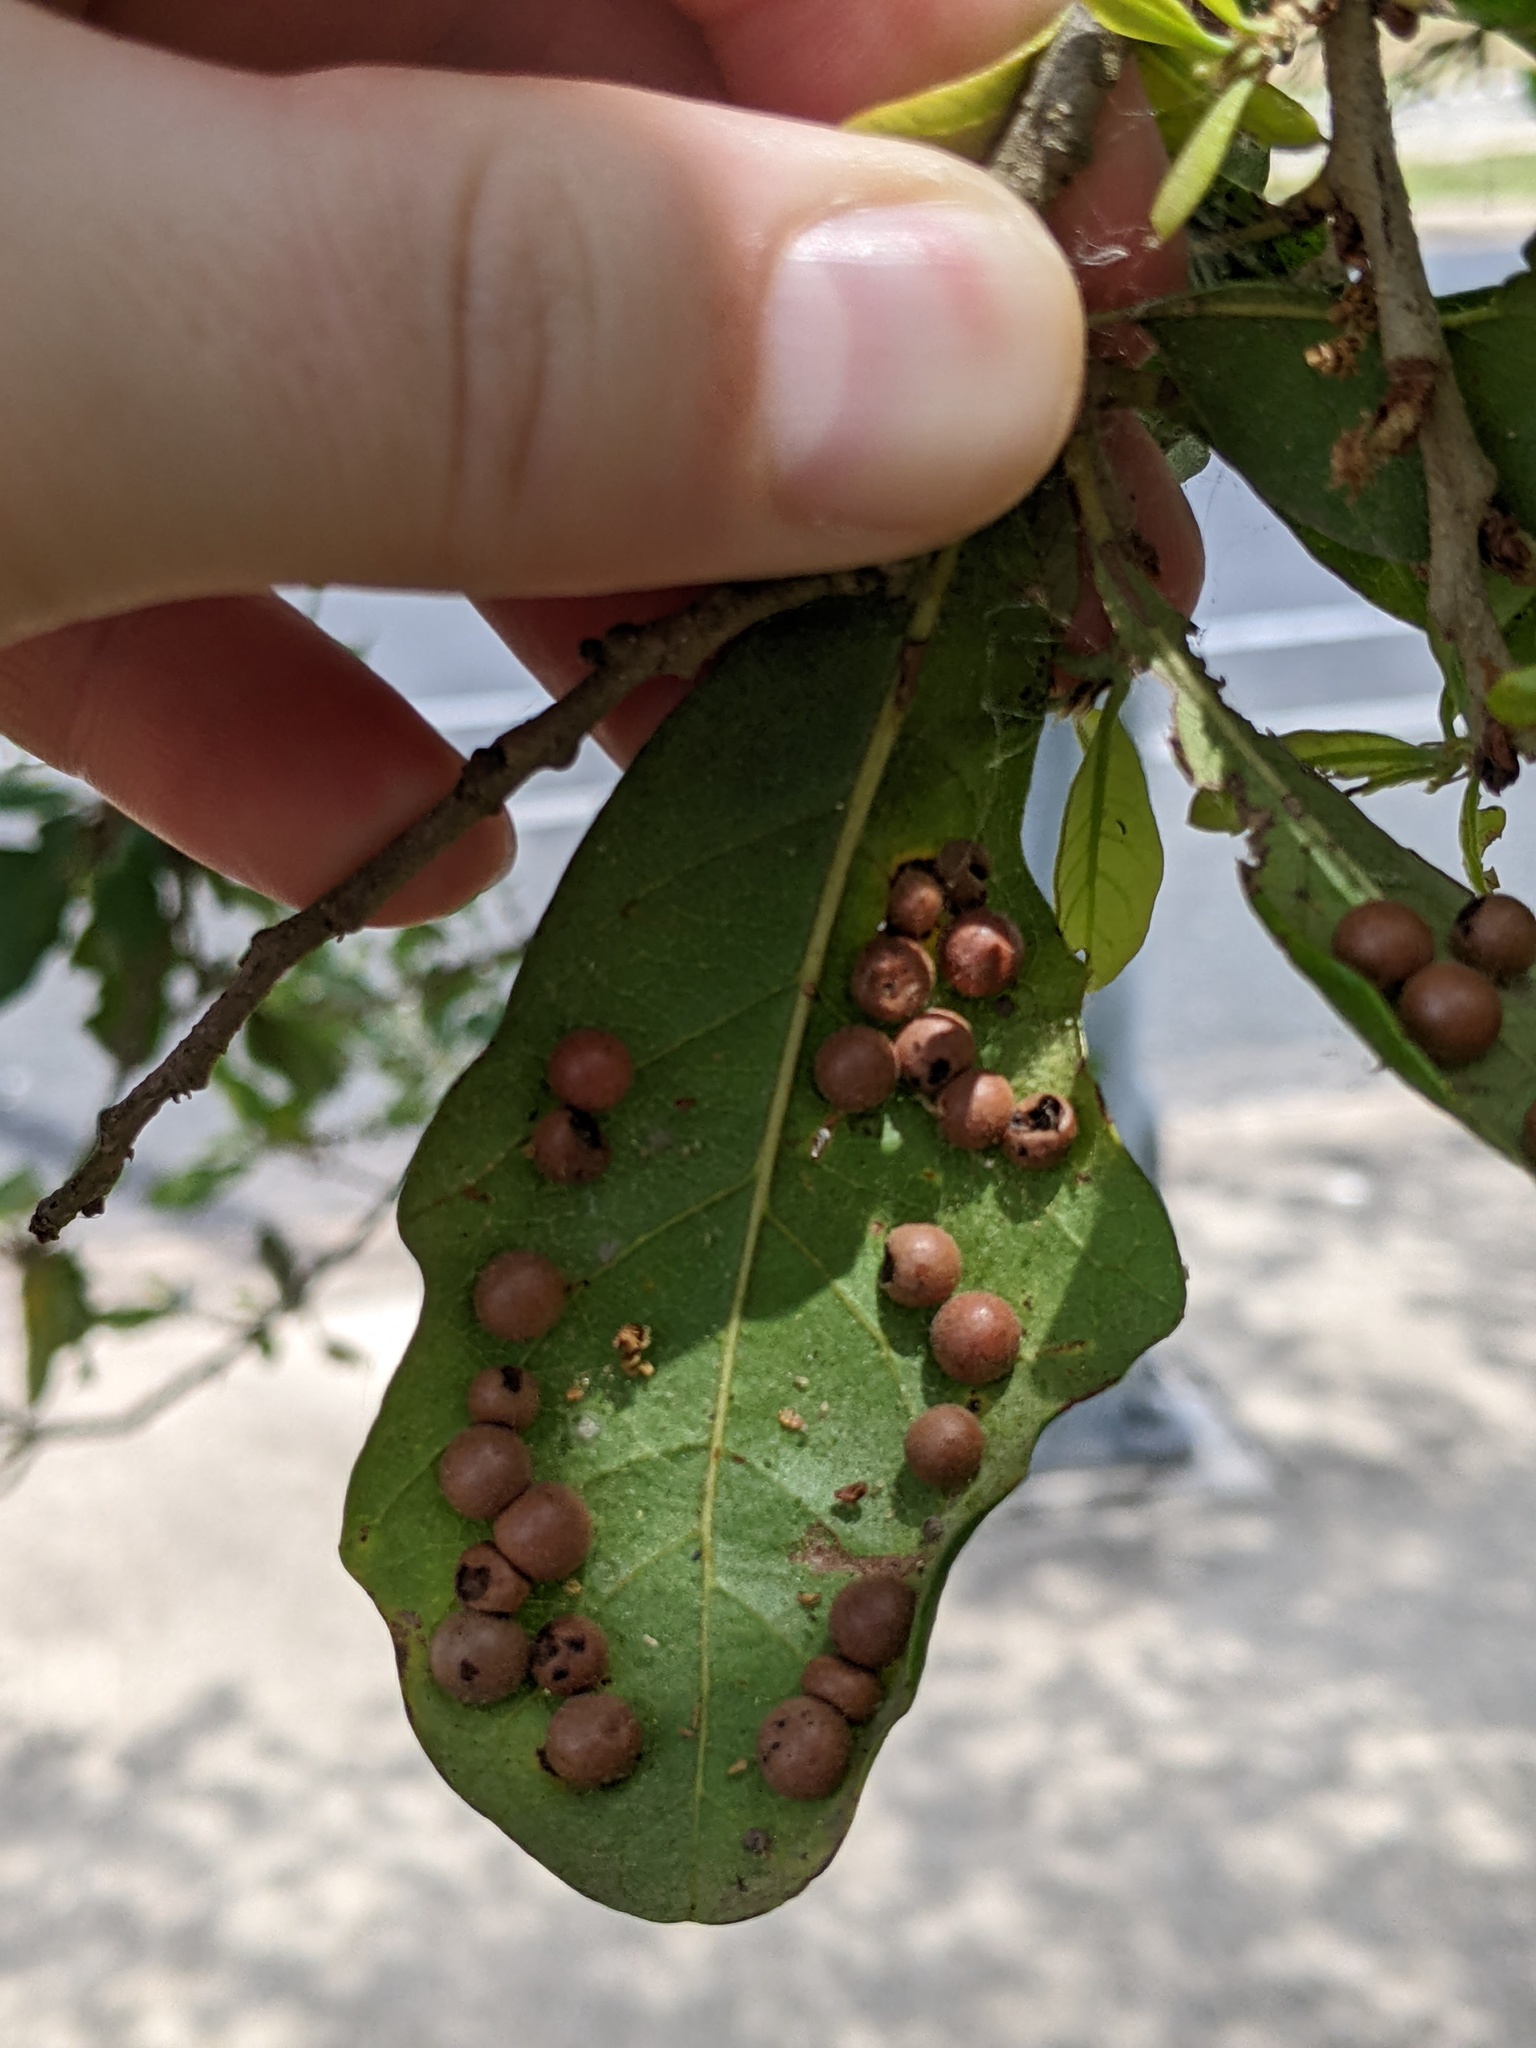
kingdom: Animalia
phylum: Arthropoda
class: Insecta
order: Hymenoptera
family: Cynipidae
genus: Belonocnema
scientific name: Belonocnema kinseyi
